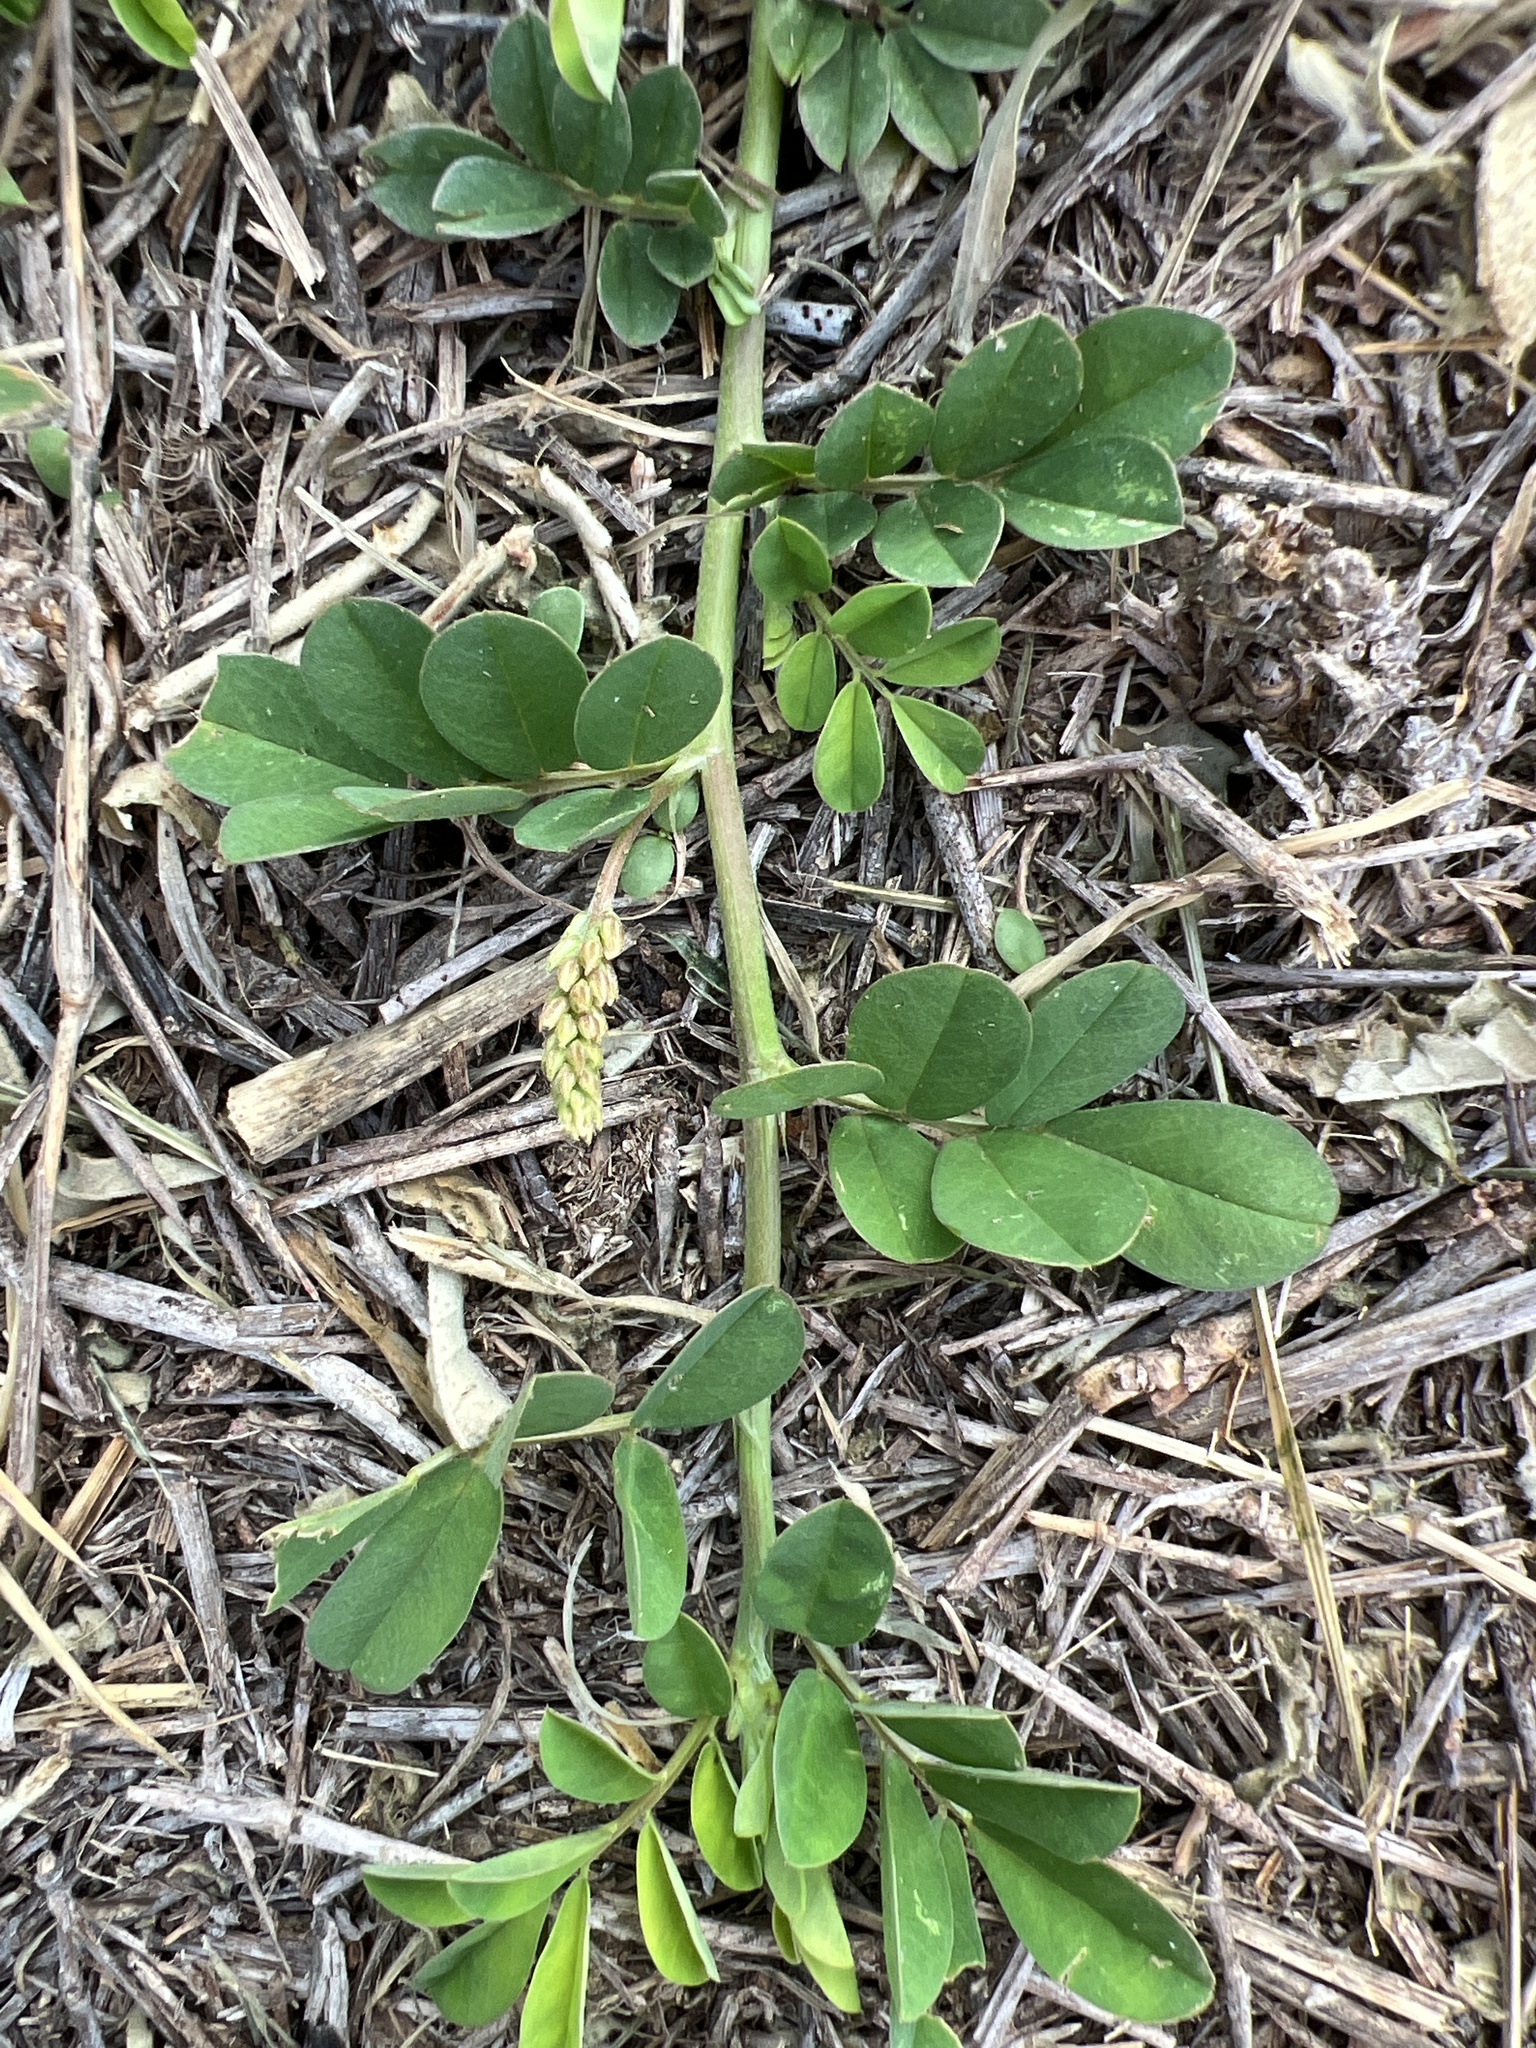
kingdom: Plantae
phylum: Tracheophyta
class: Magnoliopsida
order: Fabales
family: Fabaceae
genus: Indigofera
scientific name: Indigofera spicata
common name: Creeping indigo
